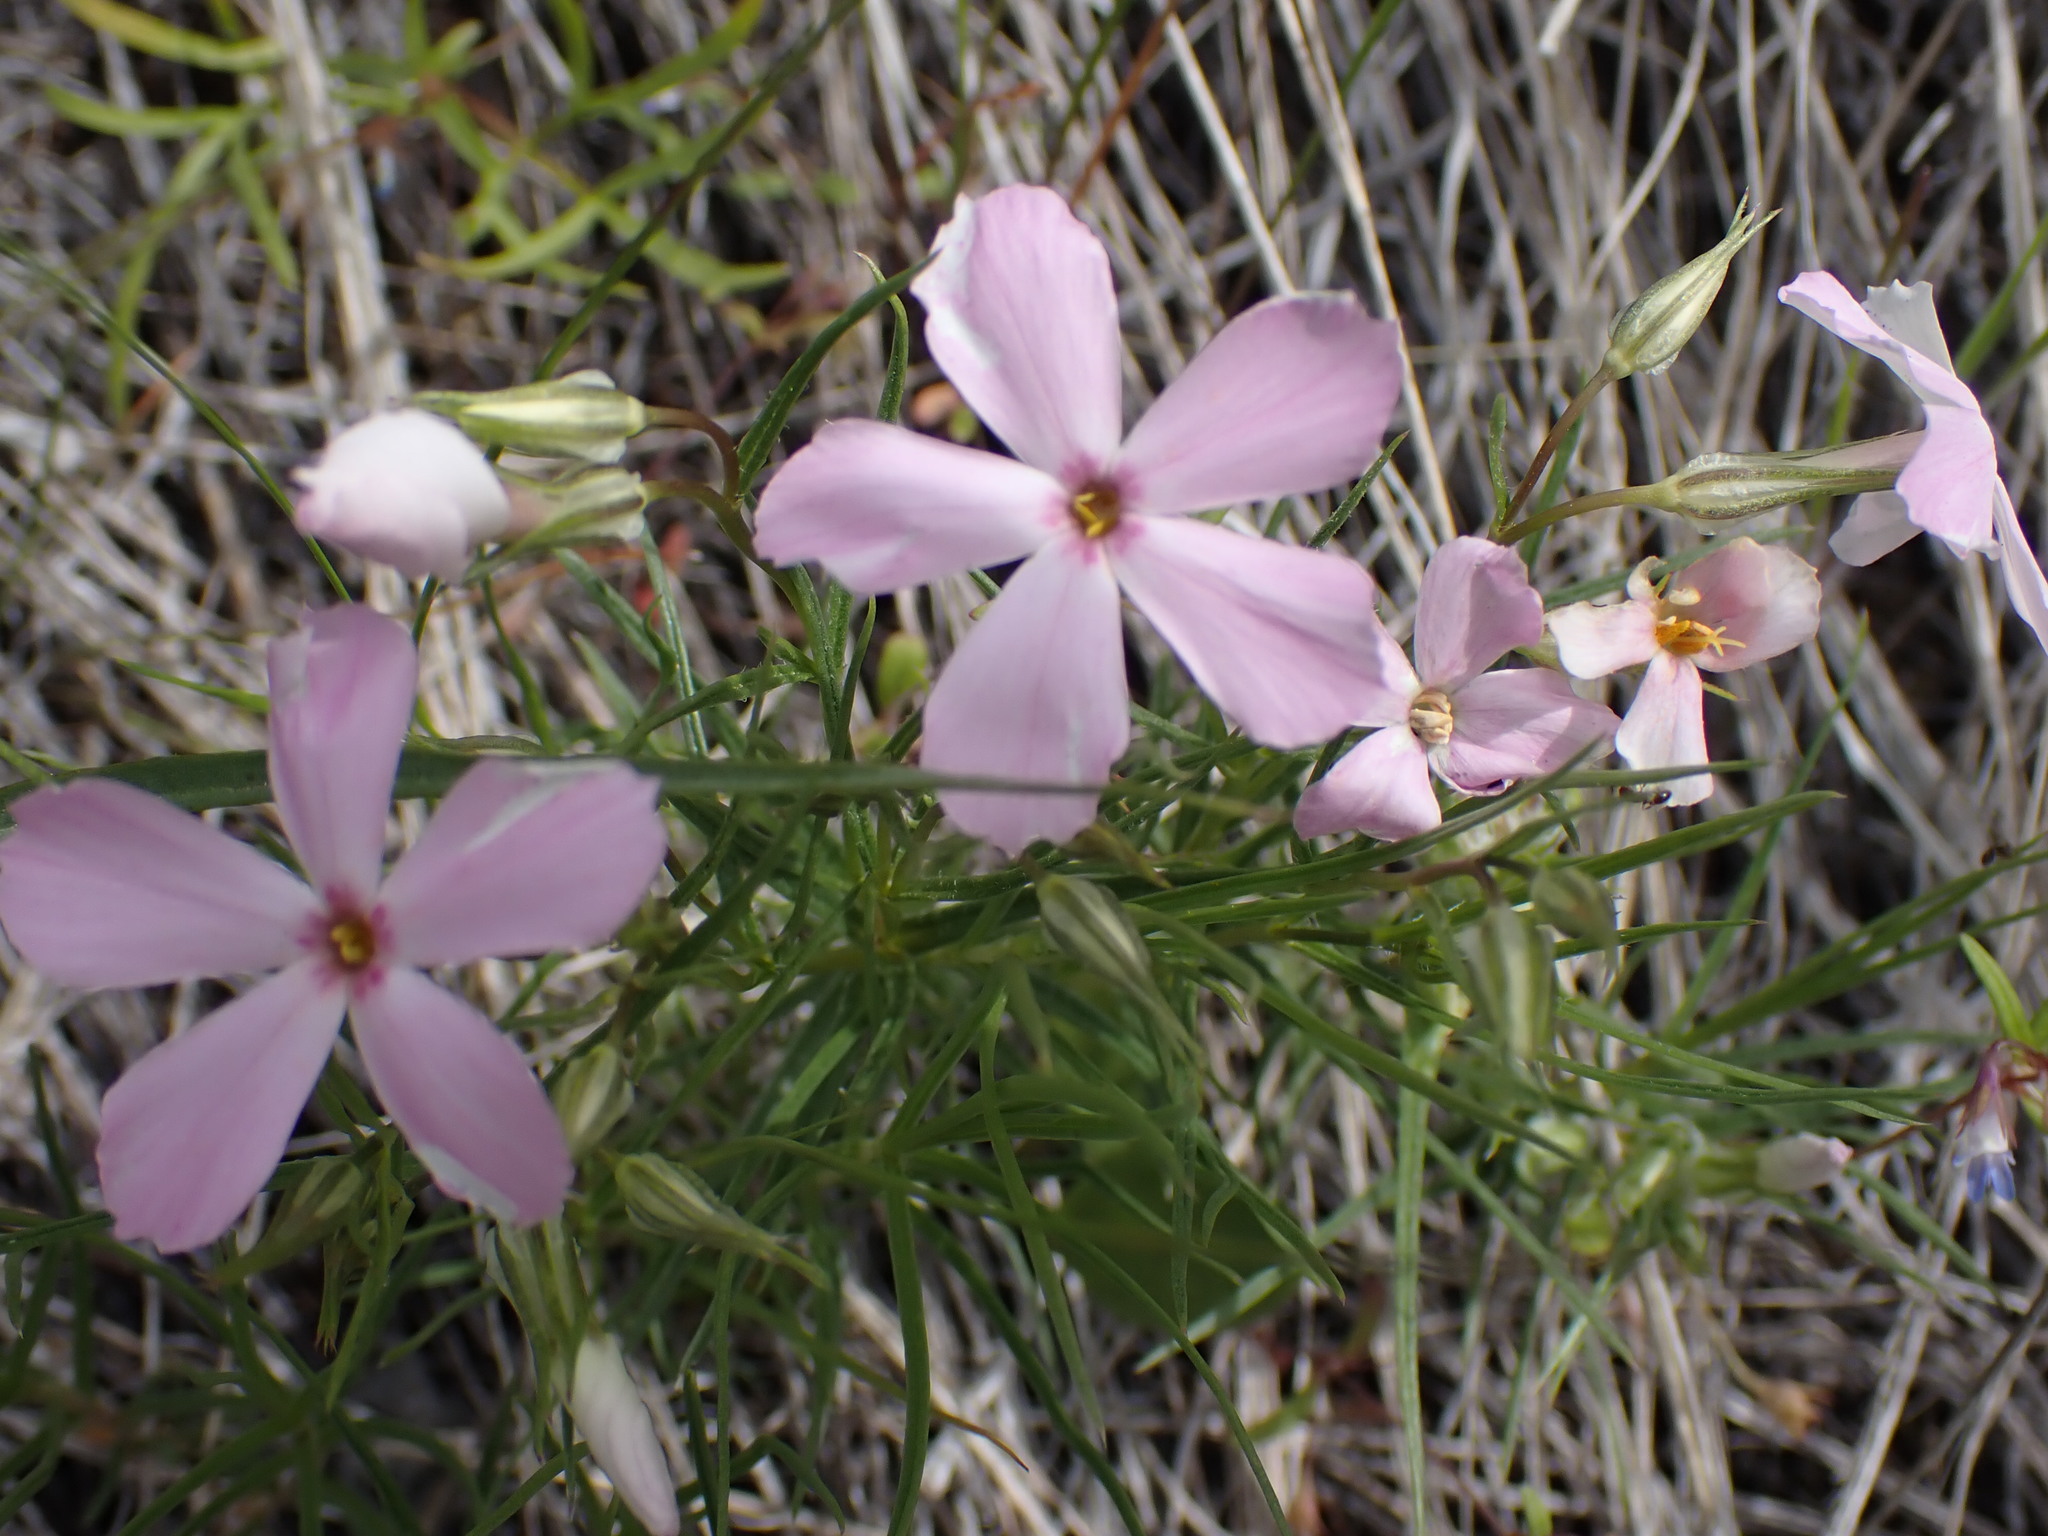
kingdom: Plantae
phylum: Tracheophyta
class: Magnoliopsida
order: Ericales
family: Polemoniaceae
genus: Phlox
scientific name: Phlox longifolia
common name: Longleaf phlox
